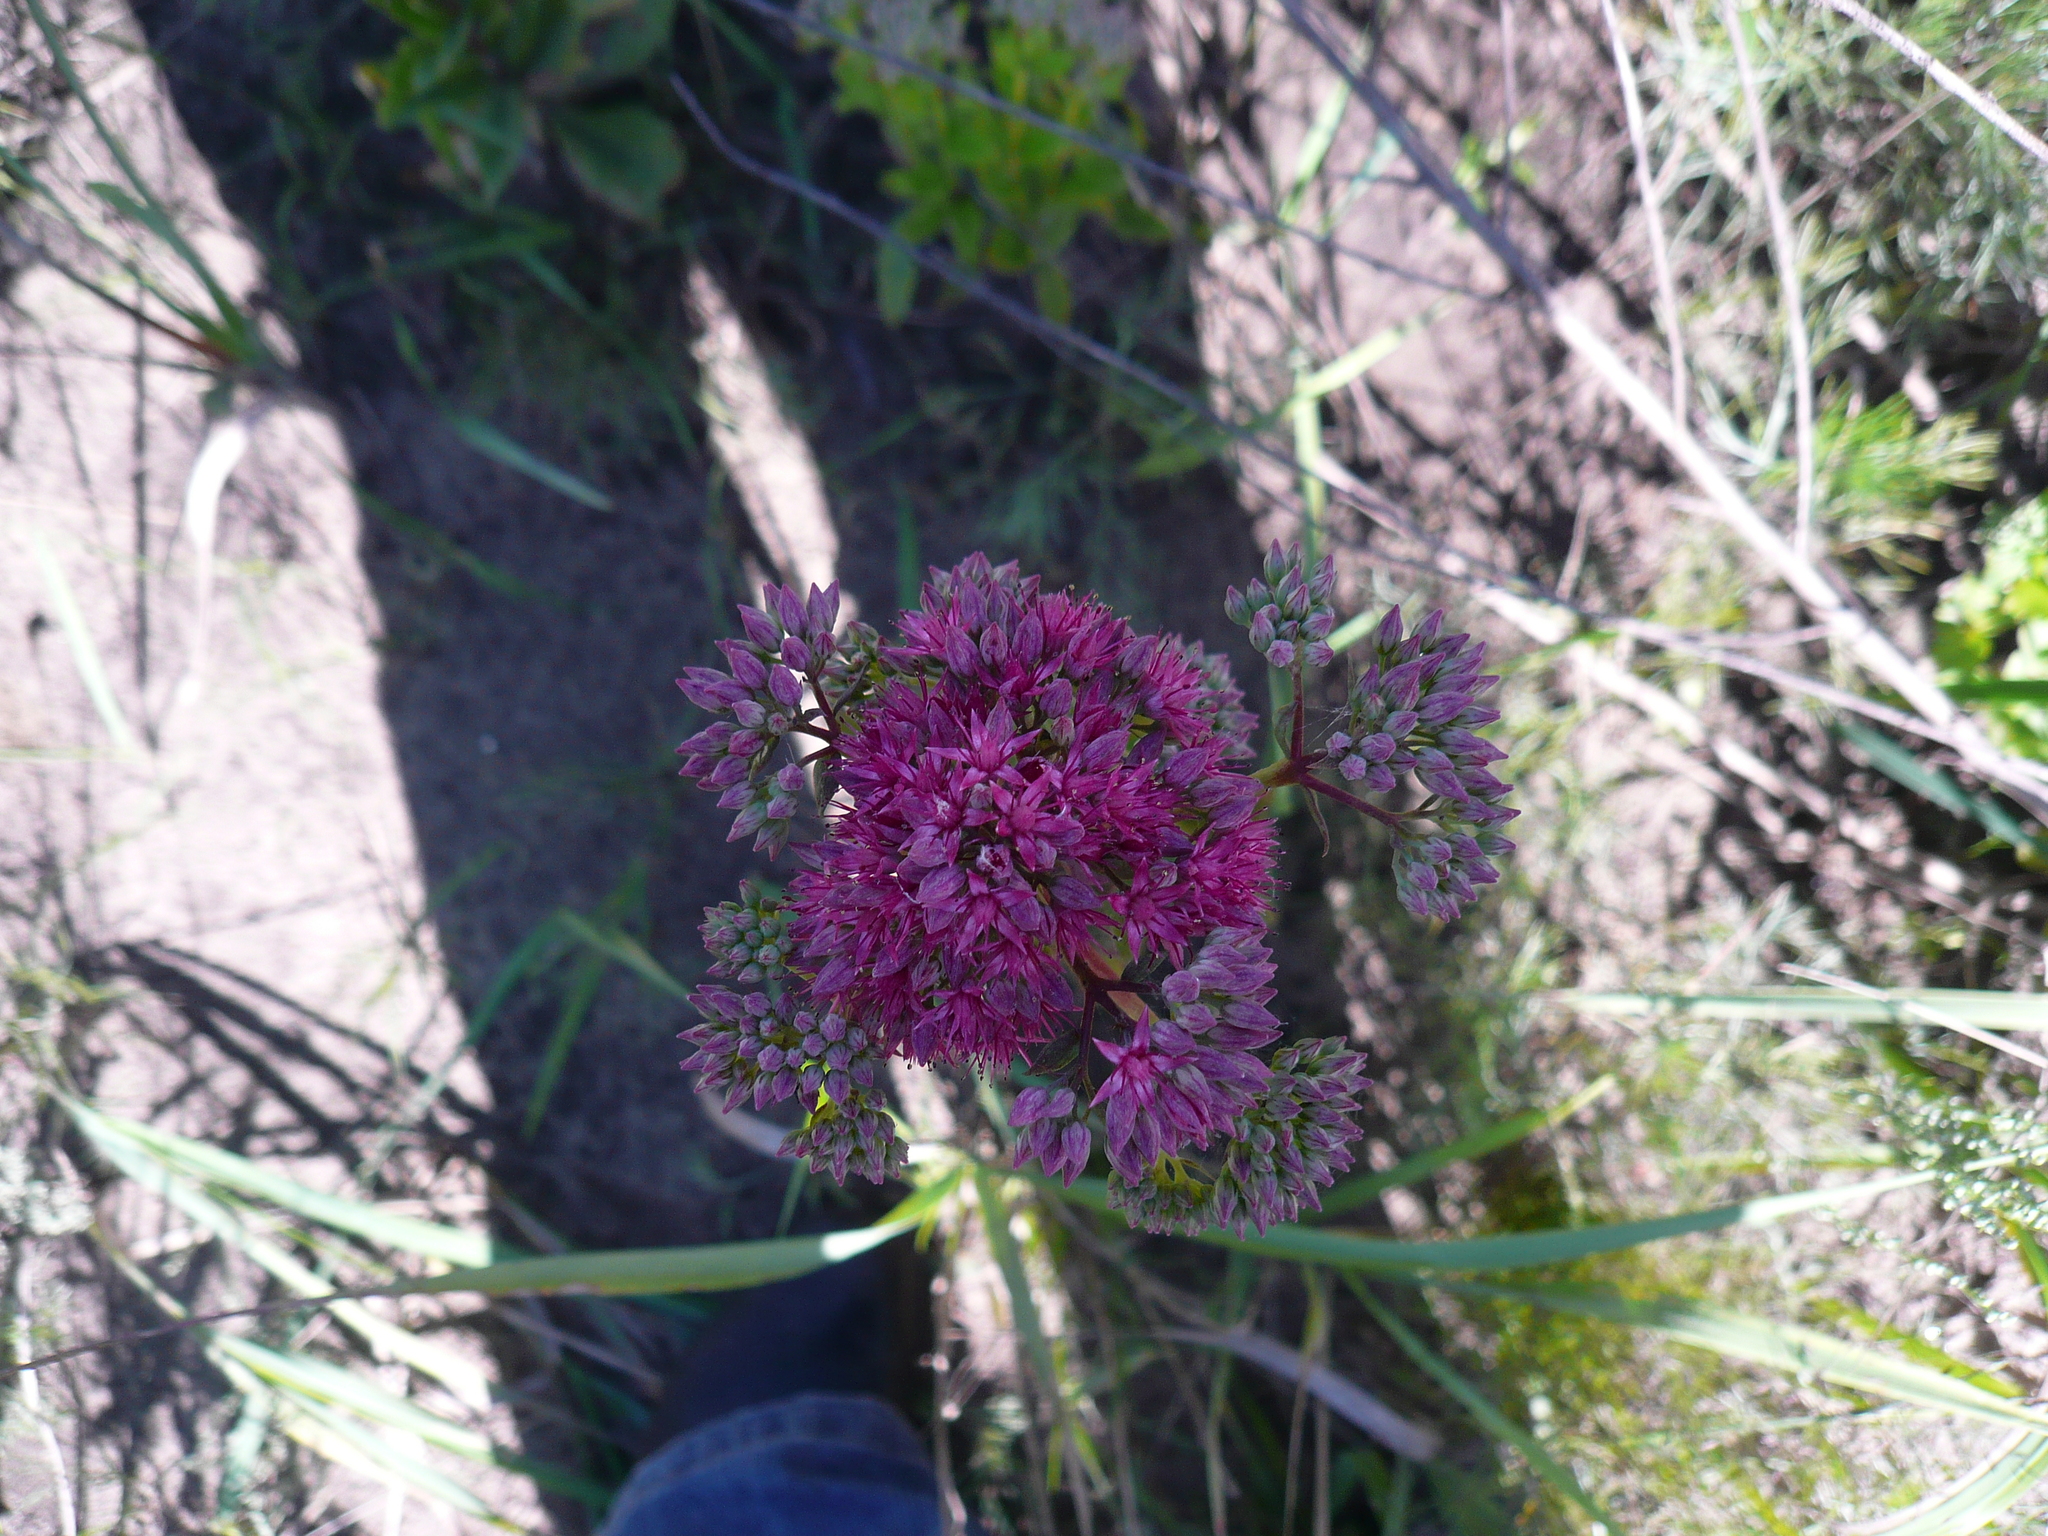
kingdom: Plantae
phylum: Tracheophyta
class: Magnoliopsida
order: Saxifragales
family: Crassulaceae
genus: Hylotelephium
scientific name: Hylotelephium telephium
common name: Live-forever
